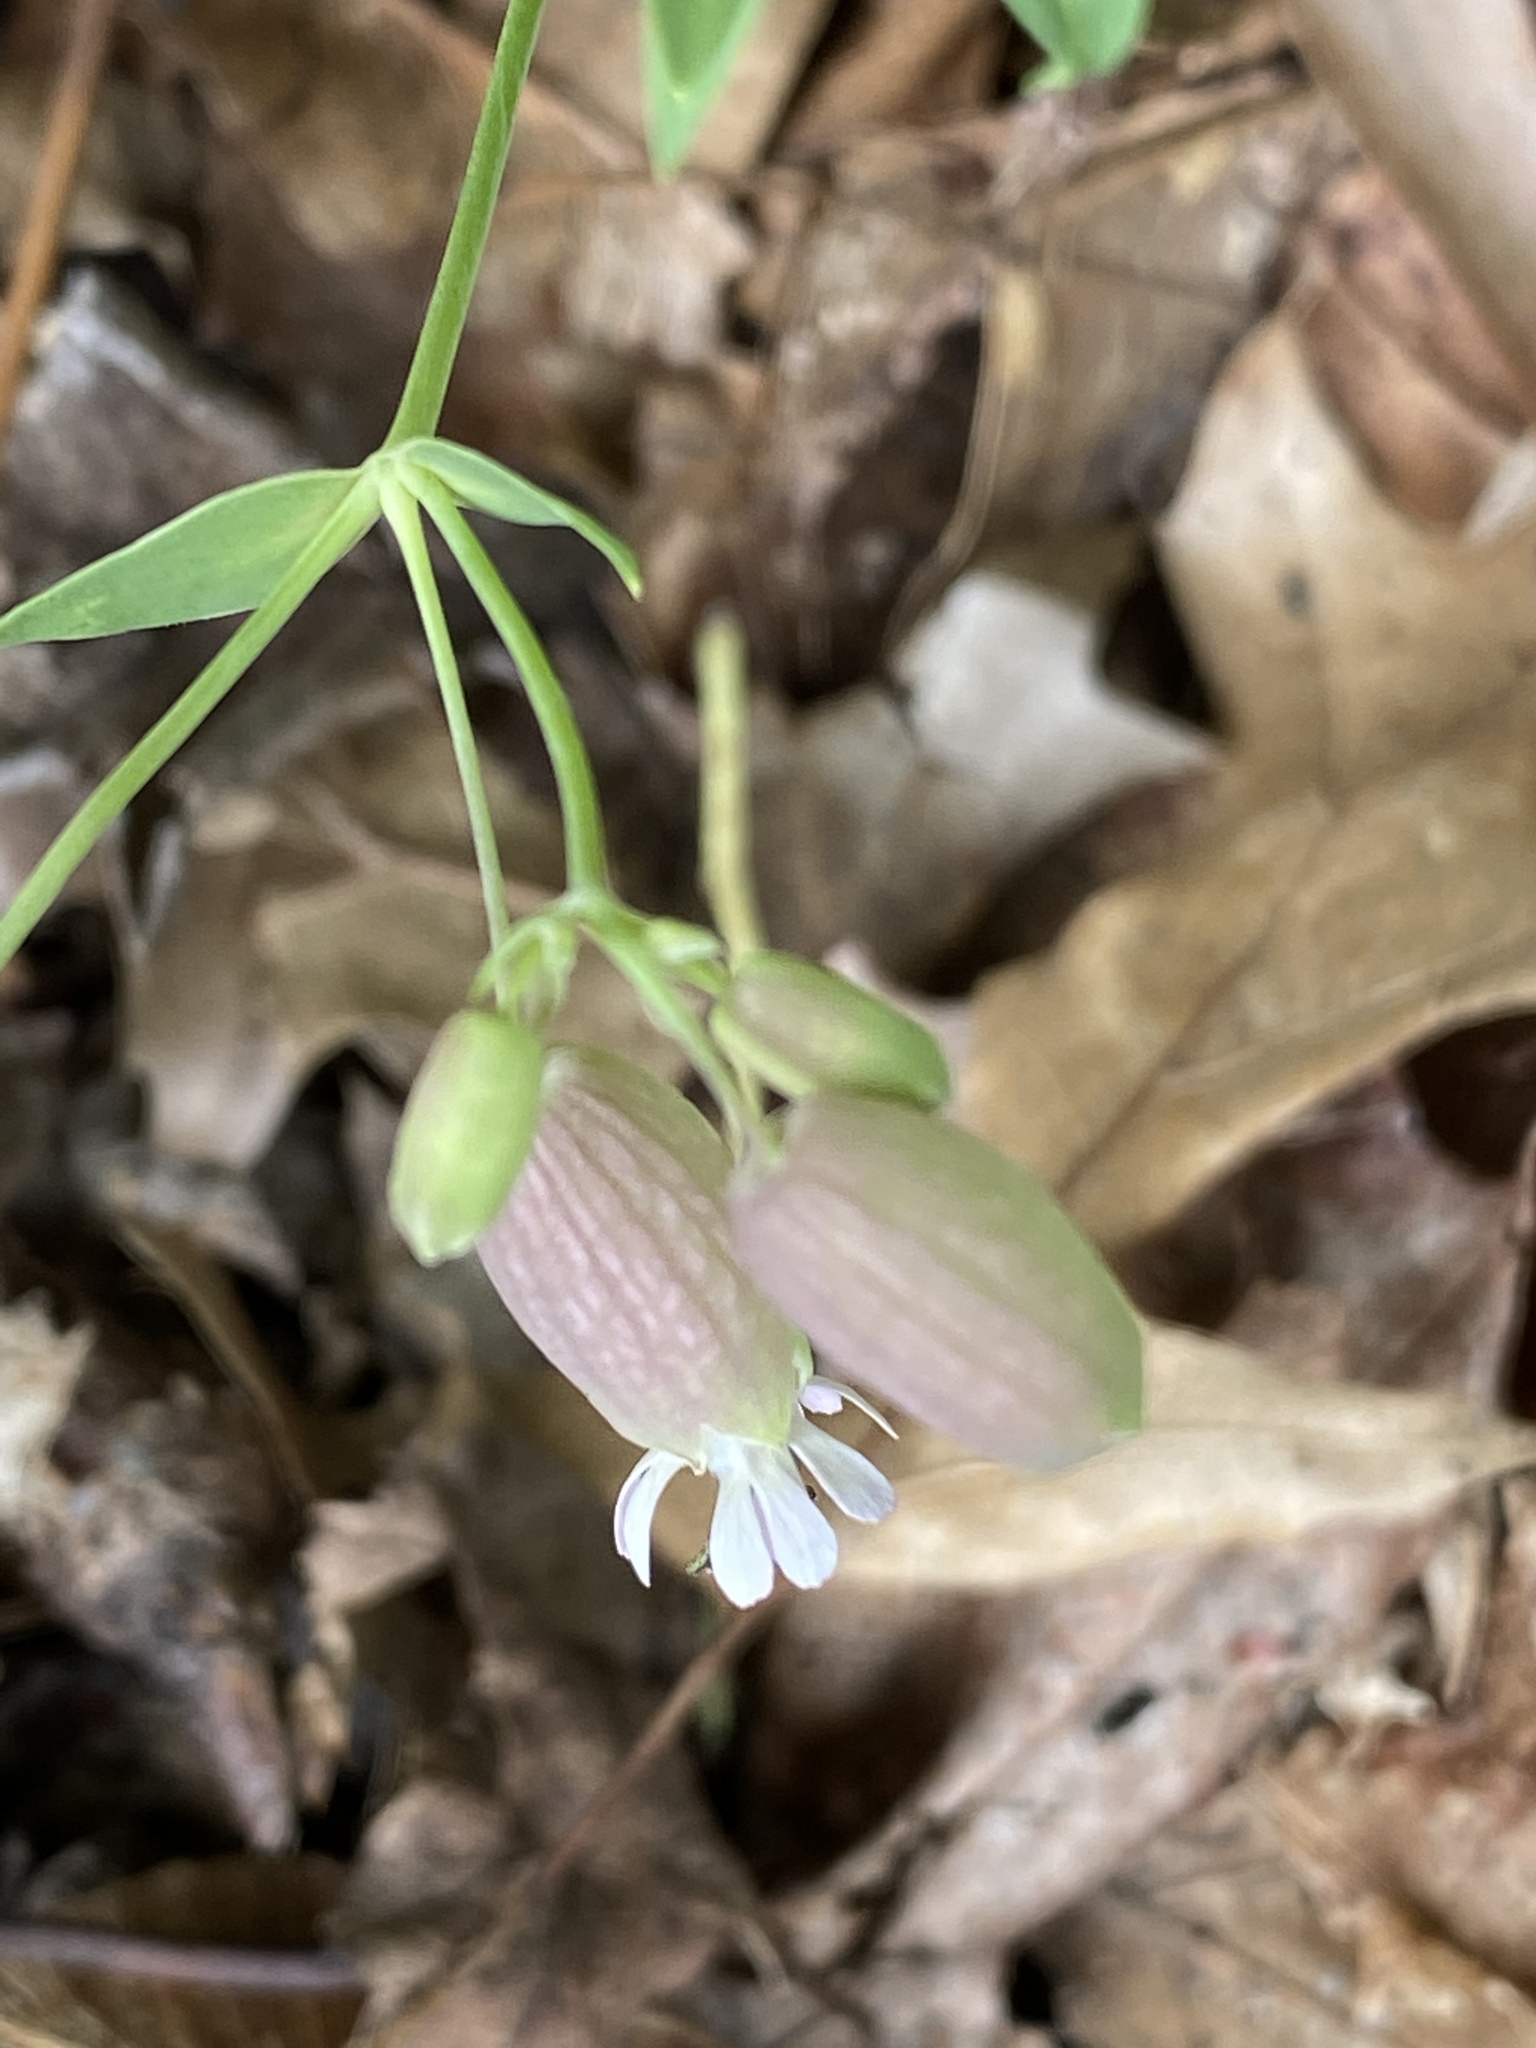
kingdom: Plantae
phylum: Tracheophyta
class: Magnoliopsida
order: Caryophyllales
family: Caryophyllaceae
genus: Silene
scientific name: Silene vulgaris
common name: Bladder campion
